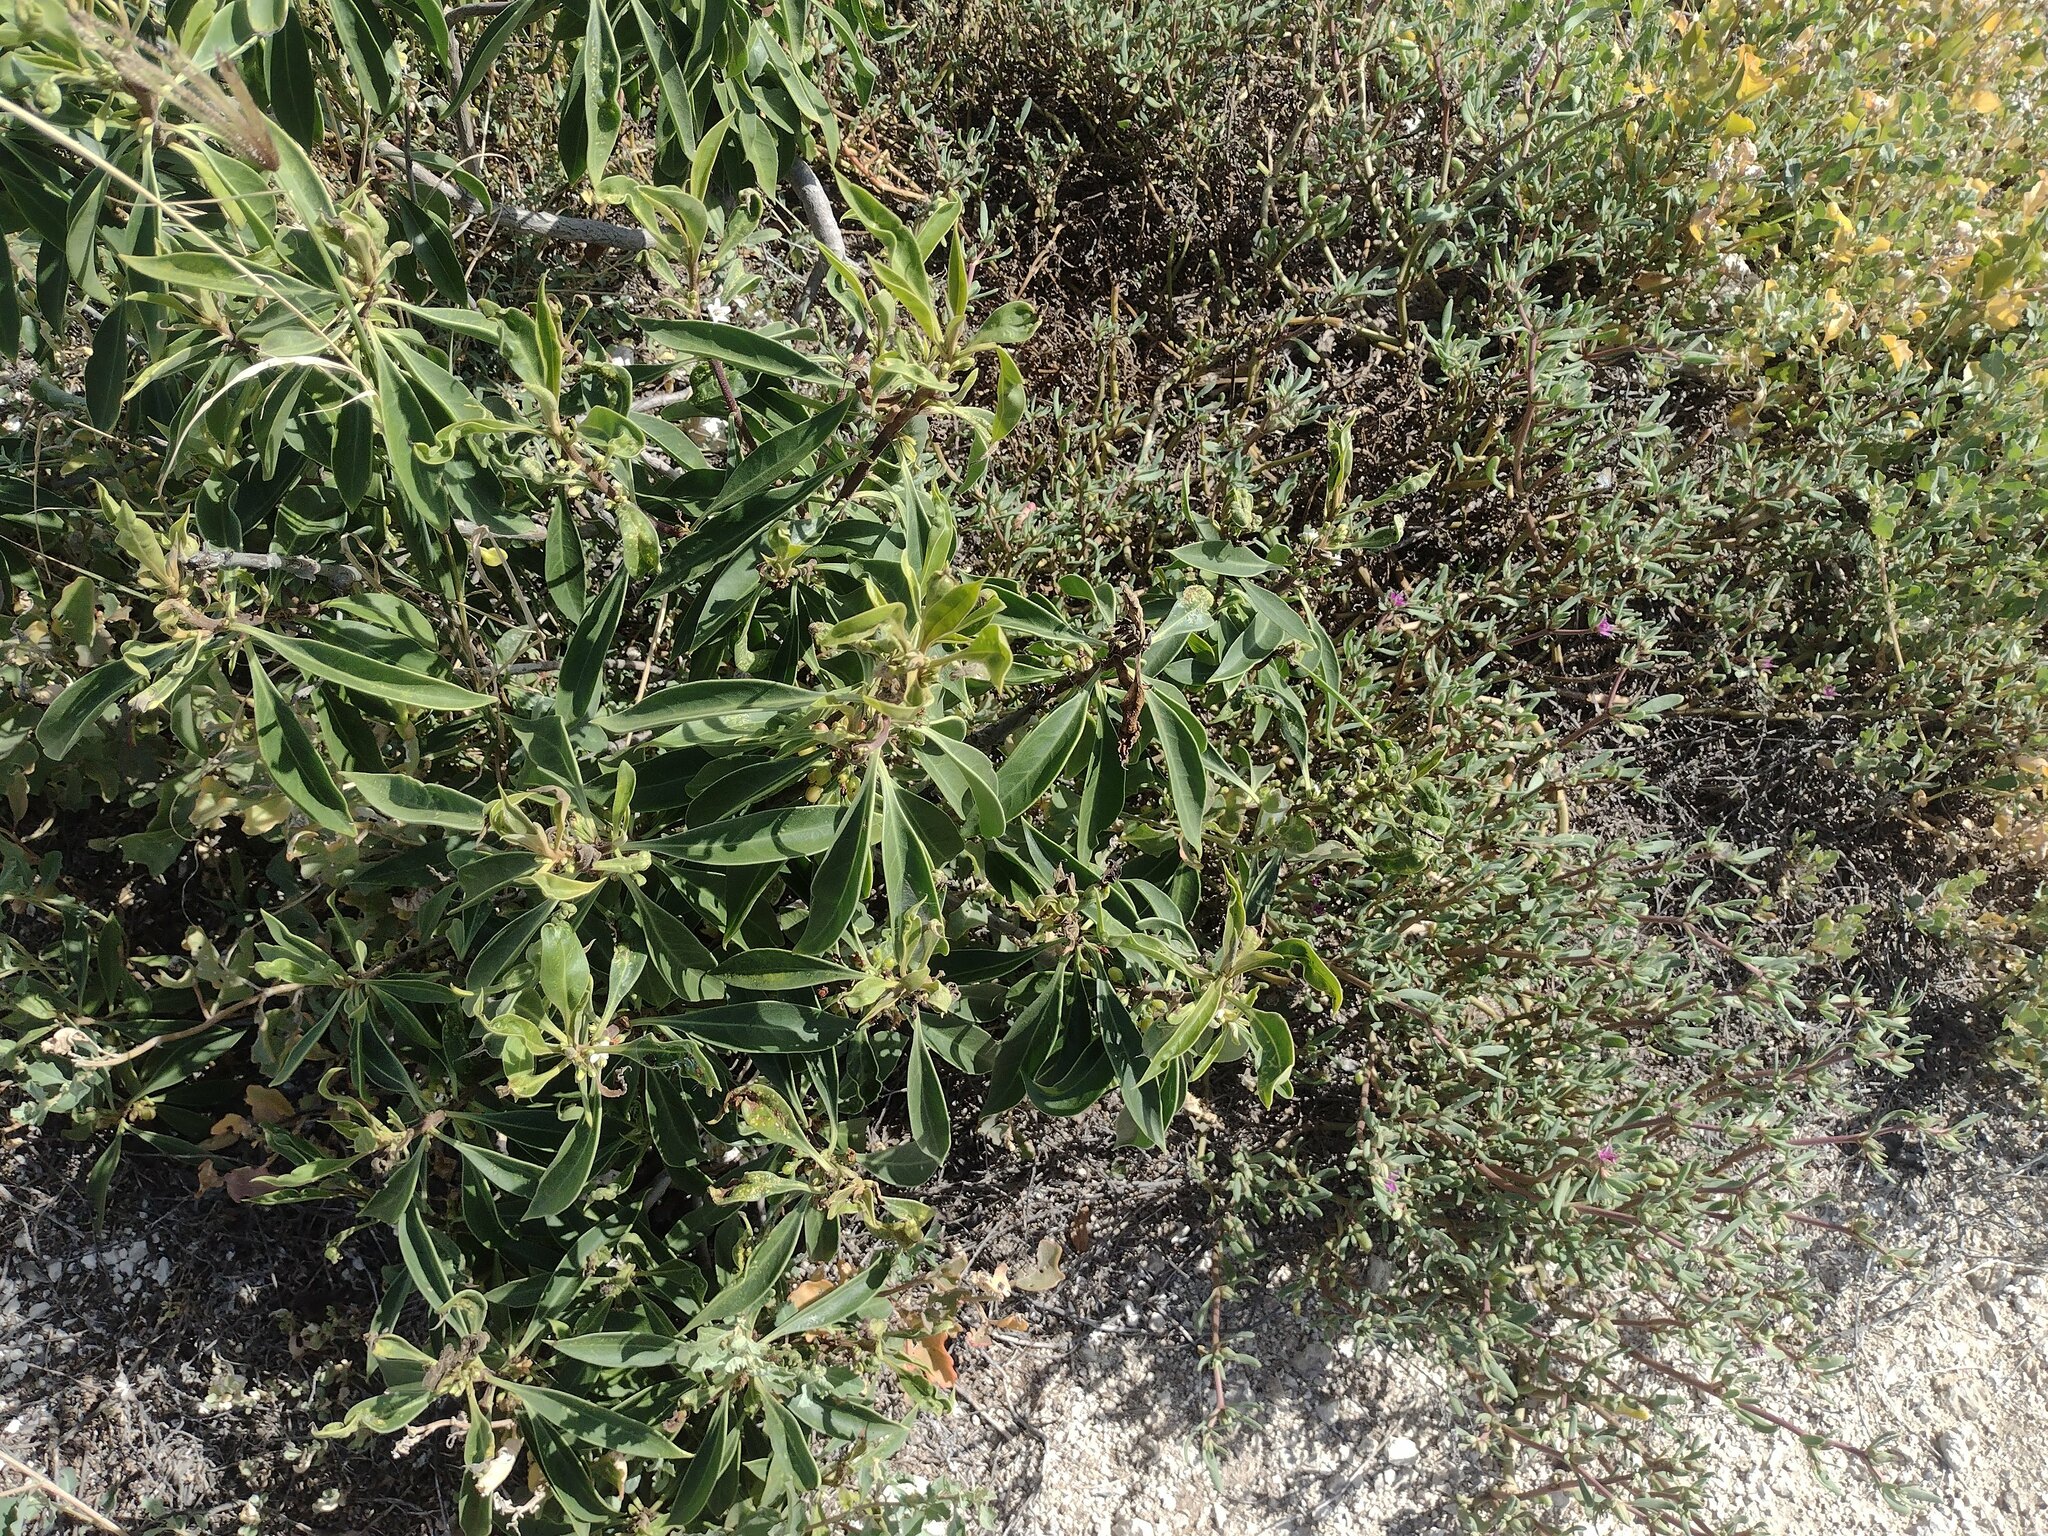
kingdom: Plantae
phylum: Tracheophyta
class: Magnoliopsida
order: Lamiales
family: Scrophulariaceae
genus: Myoporum
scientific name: Myoporum stellatum
